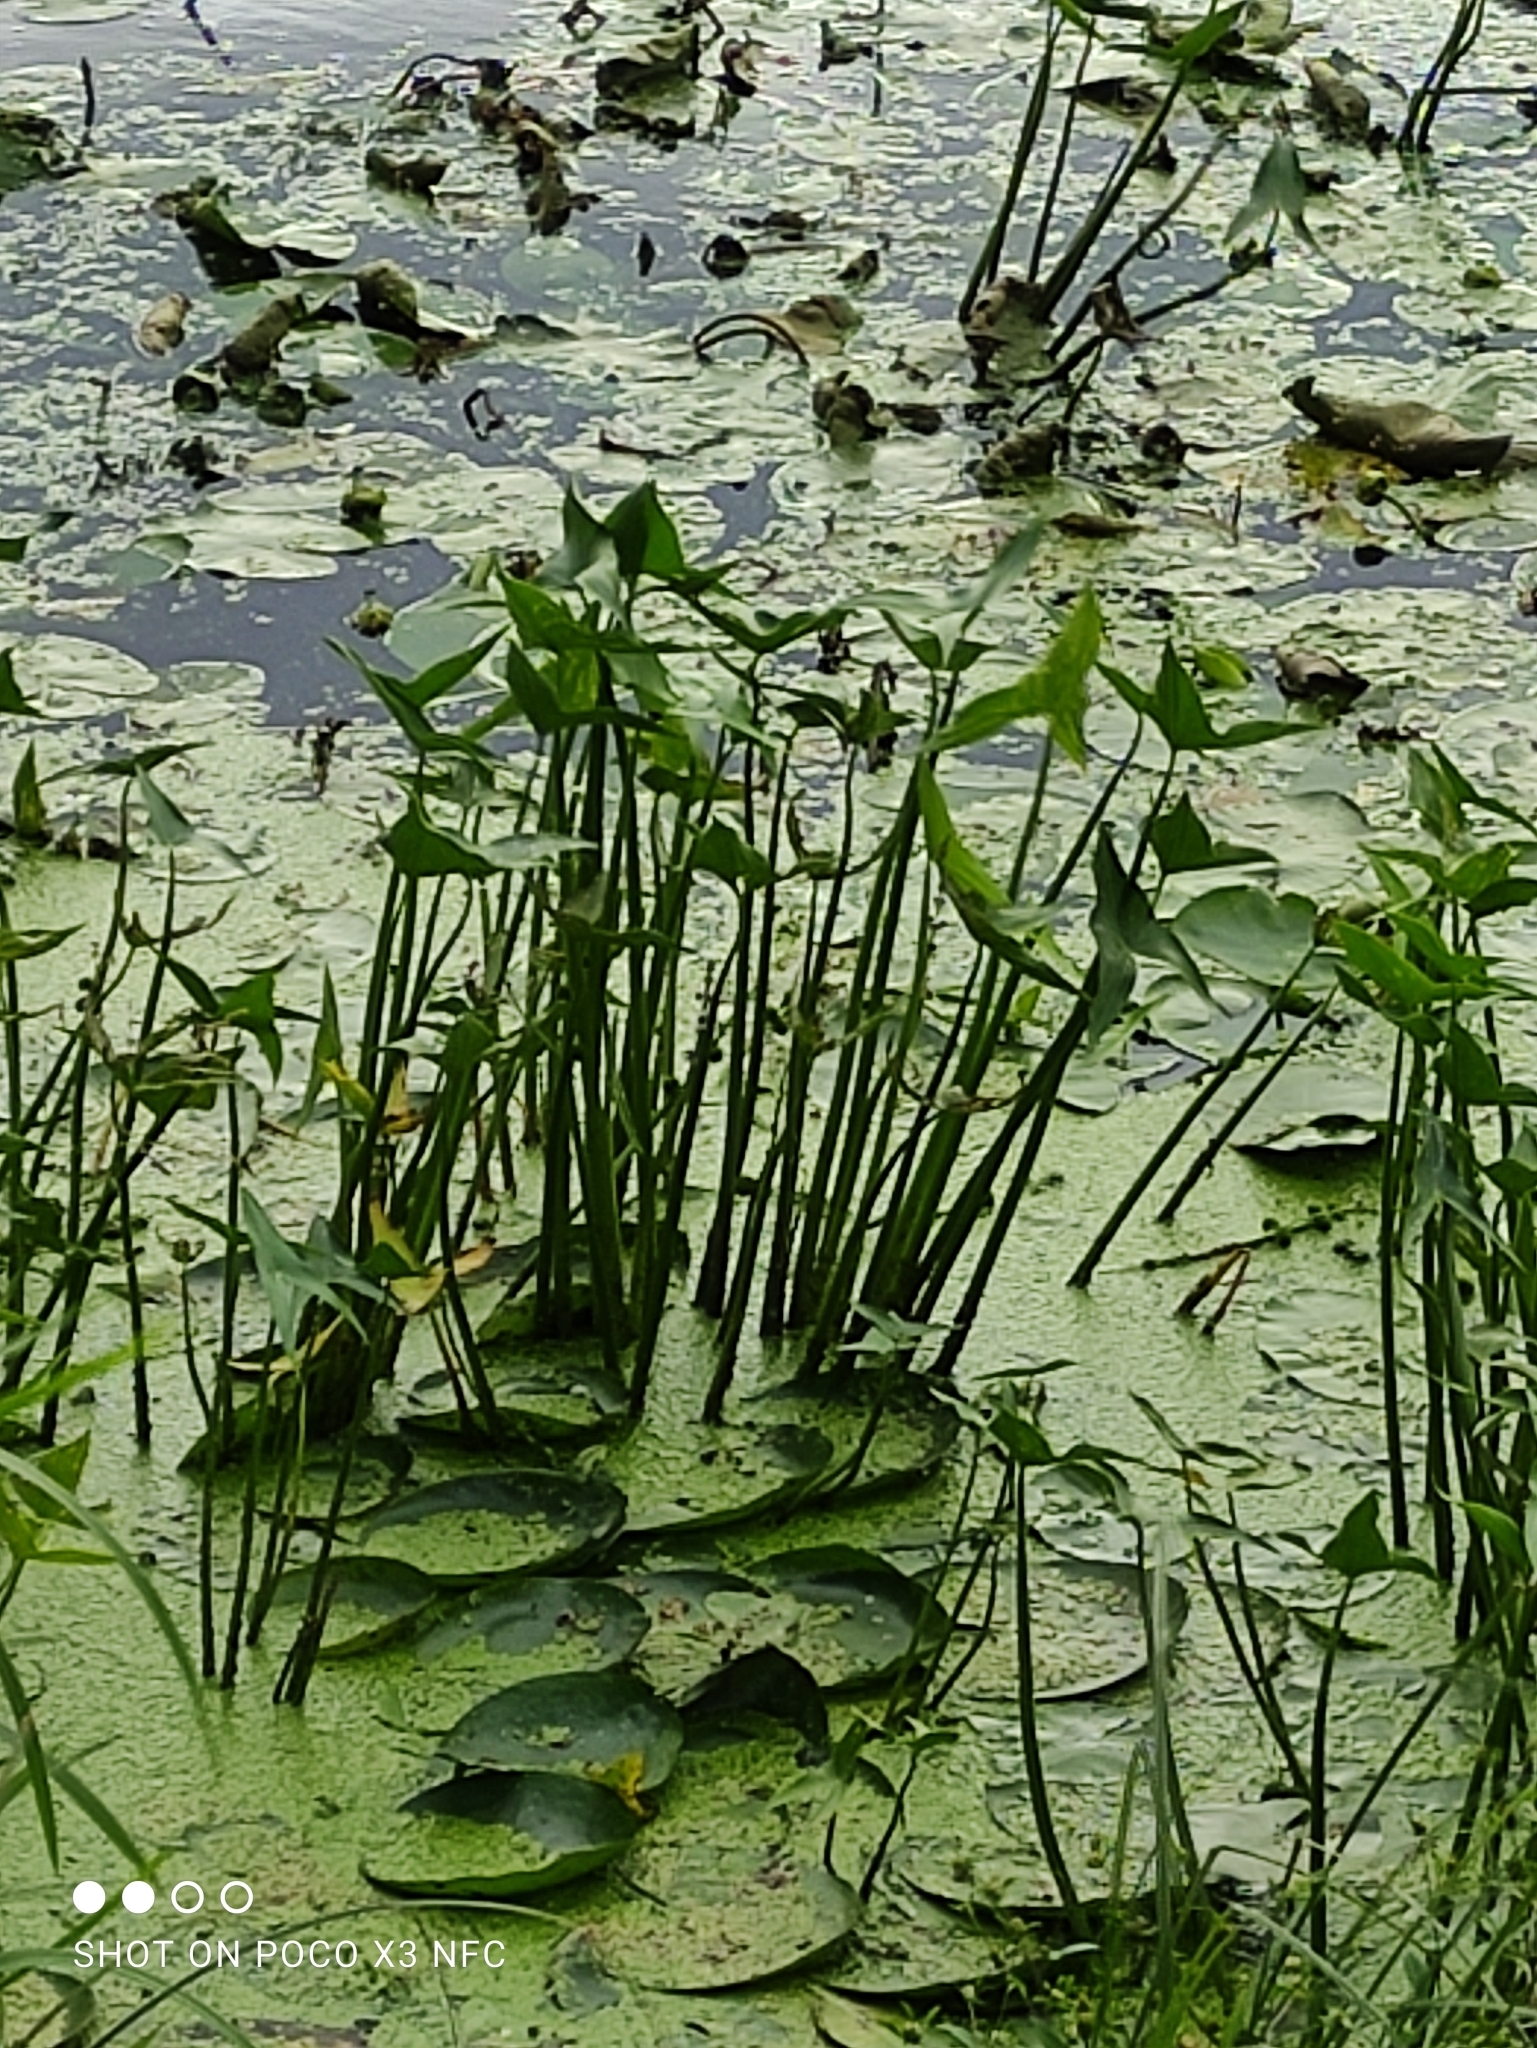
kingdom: Plantae
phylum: Tracheophyta
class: Liliopsida
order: Alismatales
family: Alismataceae
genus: Sagittaria
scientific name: Sagittaria sagittifolia
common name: Arrowhead
